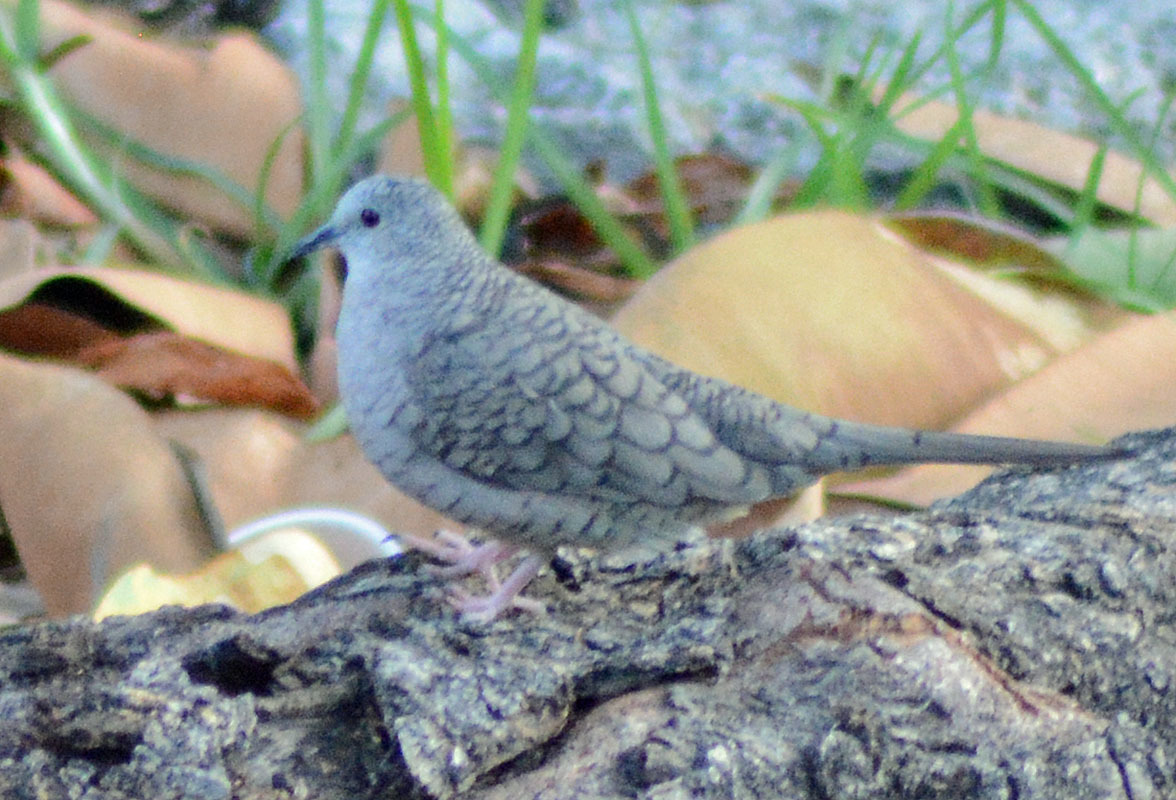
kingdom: Animalia
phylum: Chordata
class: Aves
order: Columbiformes
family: Columbidae
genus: Columbina
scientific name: Columbina inca
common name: Inca dove
